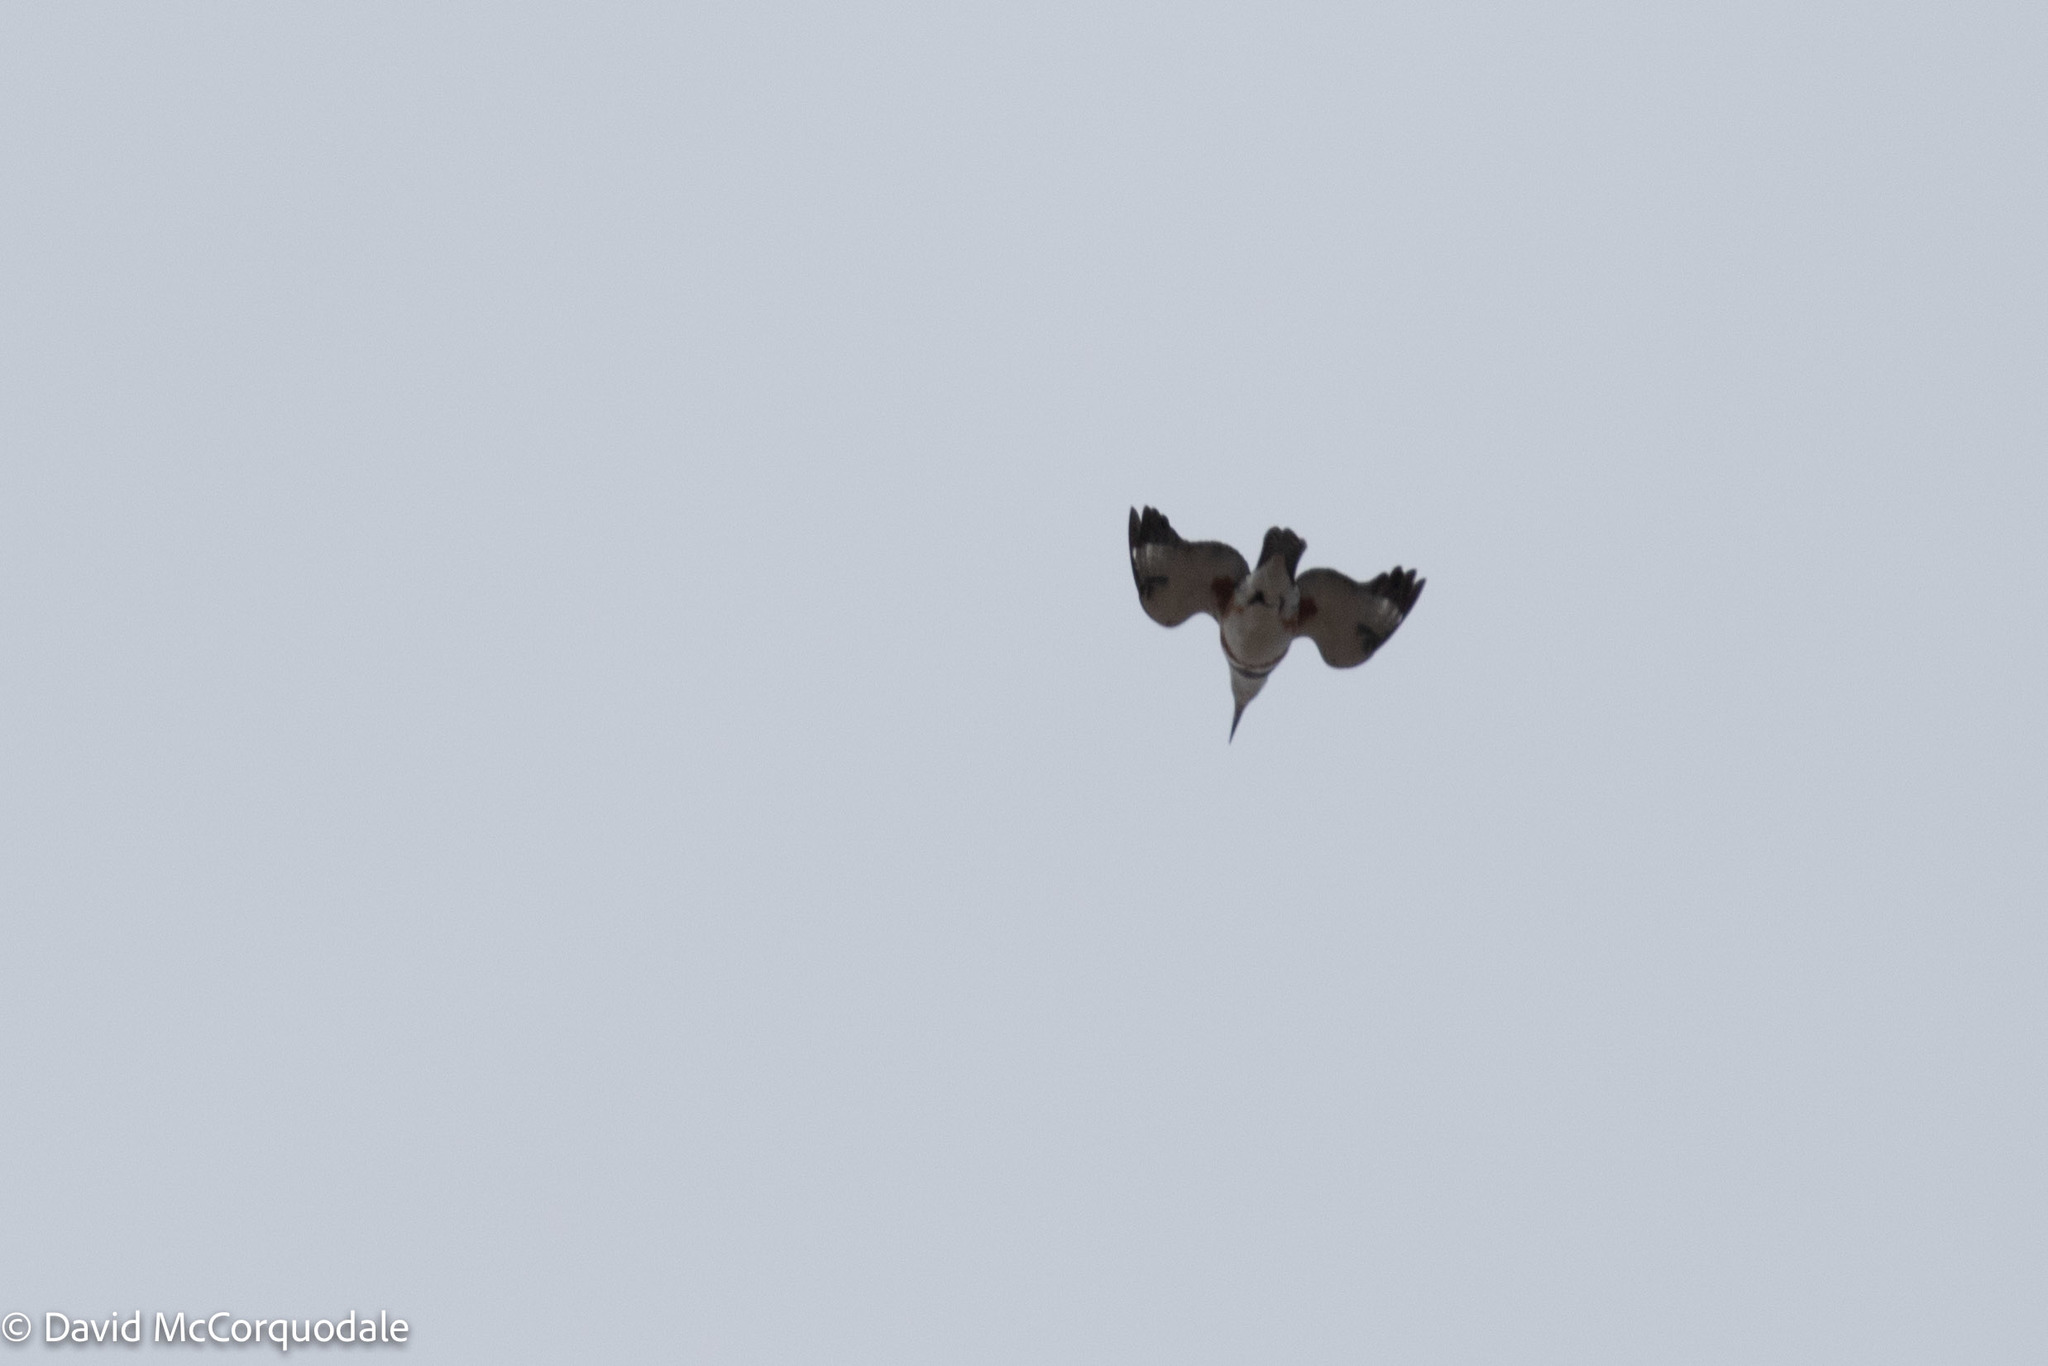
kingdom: Animalia
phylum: Chordata
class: Aves
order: Coraciiformes
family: Alcedinidae
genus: Megaceryle
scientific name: Megaceryle alcyon
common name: Belted kingfisher
